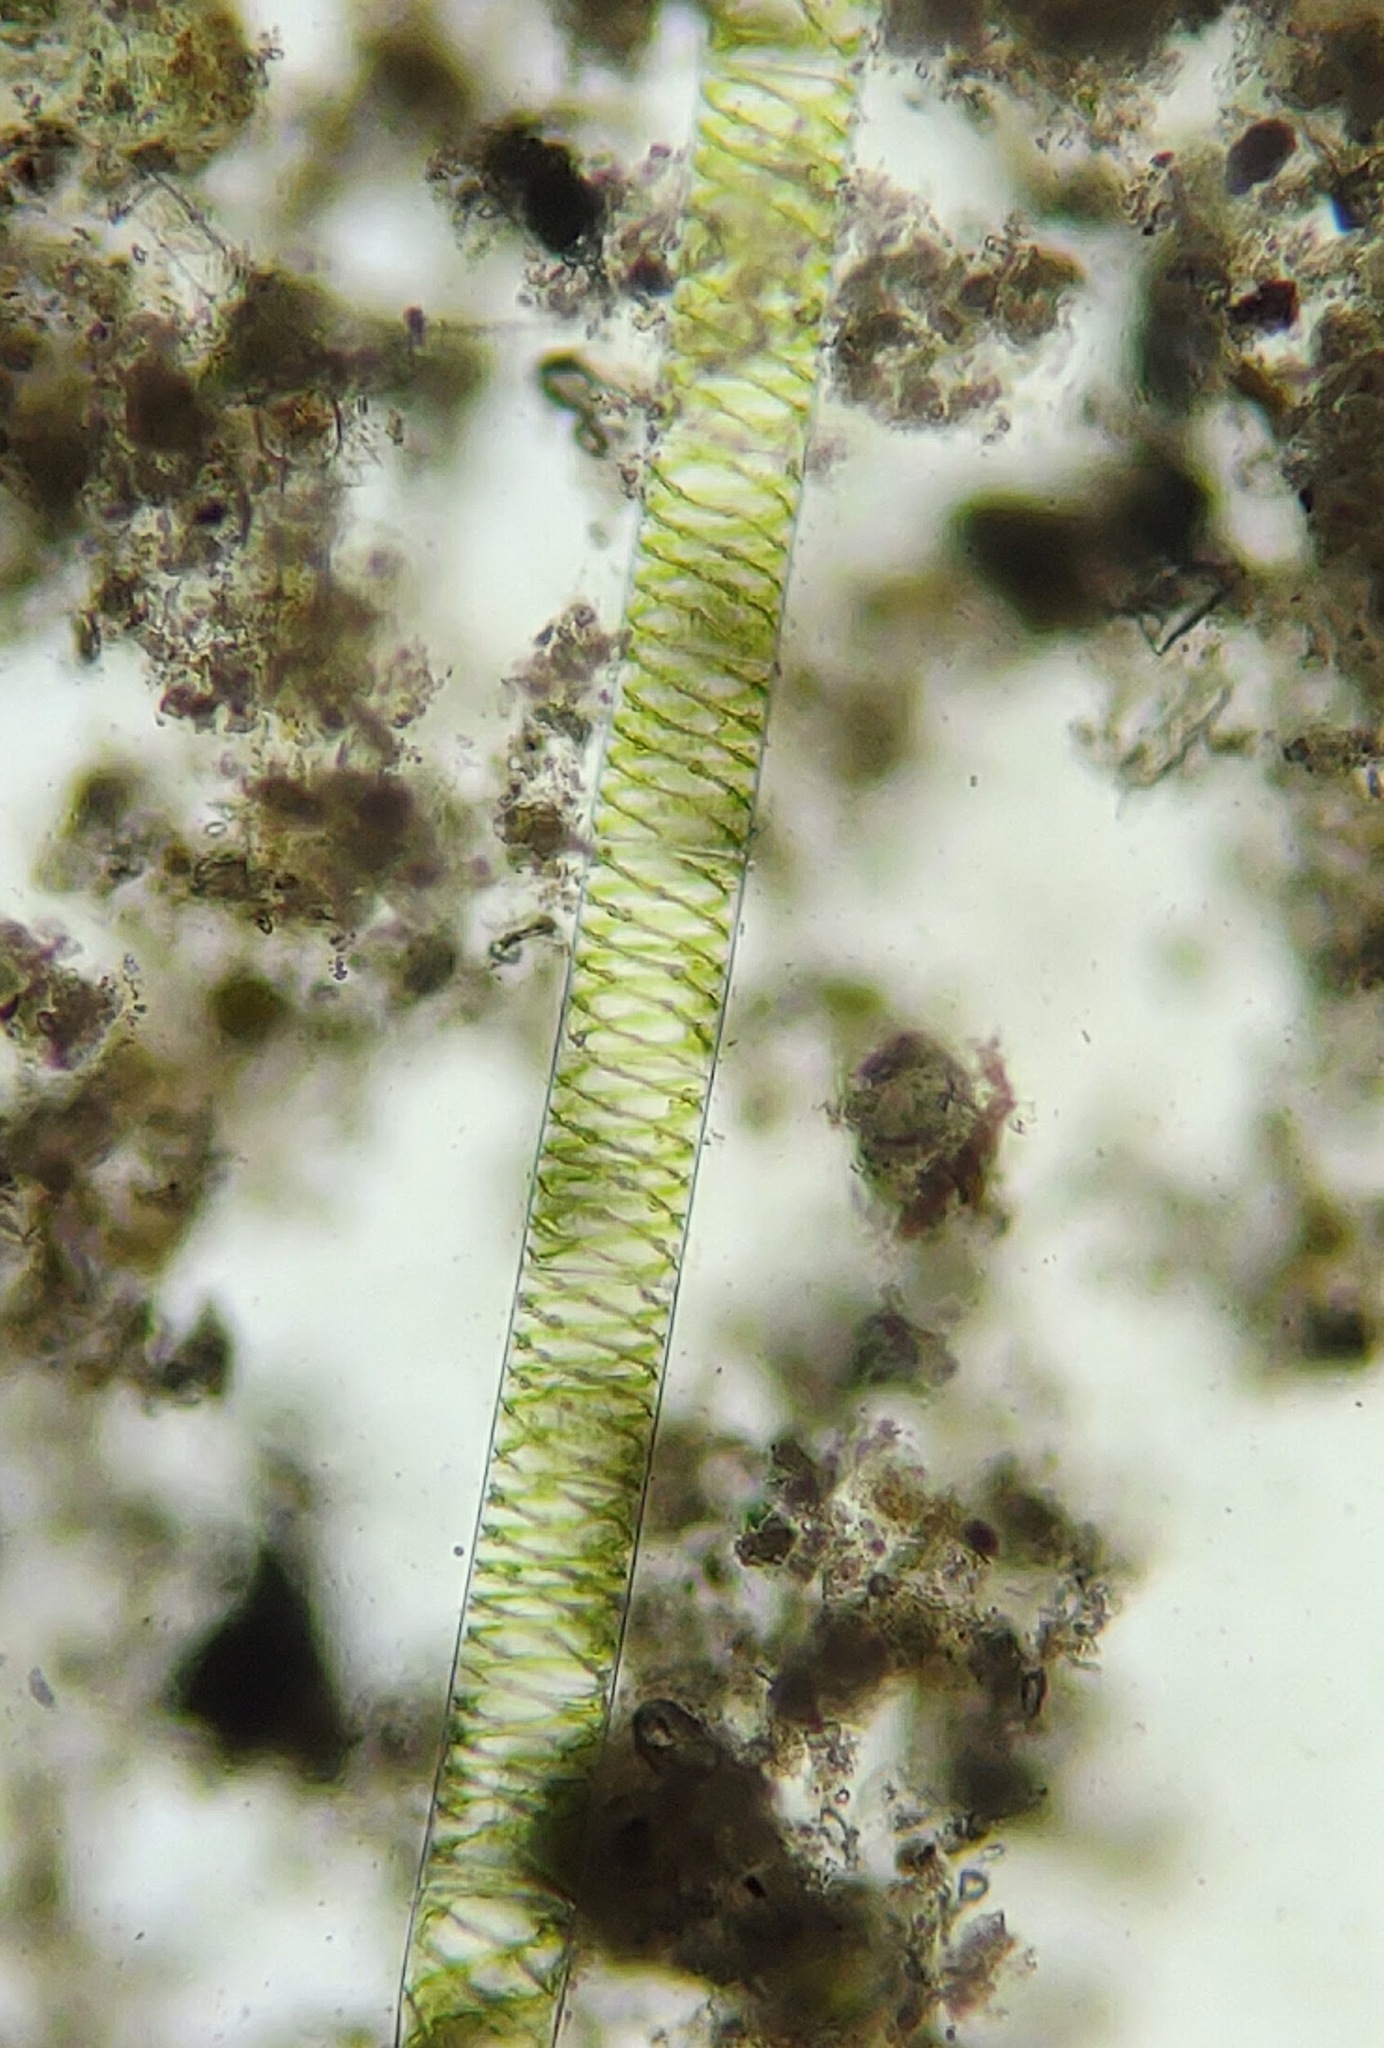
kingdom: Plantae
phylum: Charophyta
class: Zygnematophyceae
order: Zygnematales
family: Zygnemataceae
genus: Spirogyra
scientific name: Spirogyra
